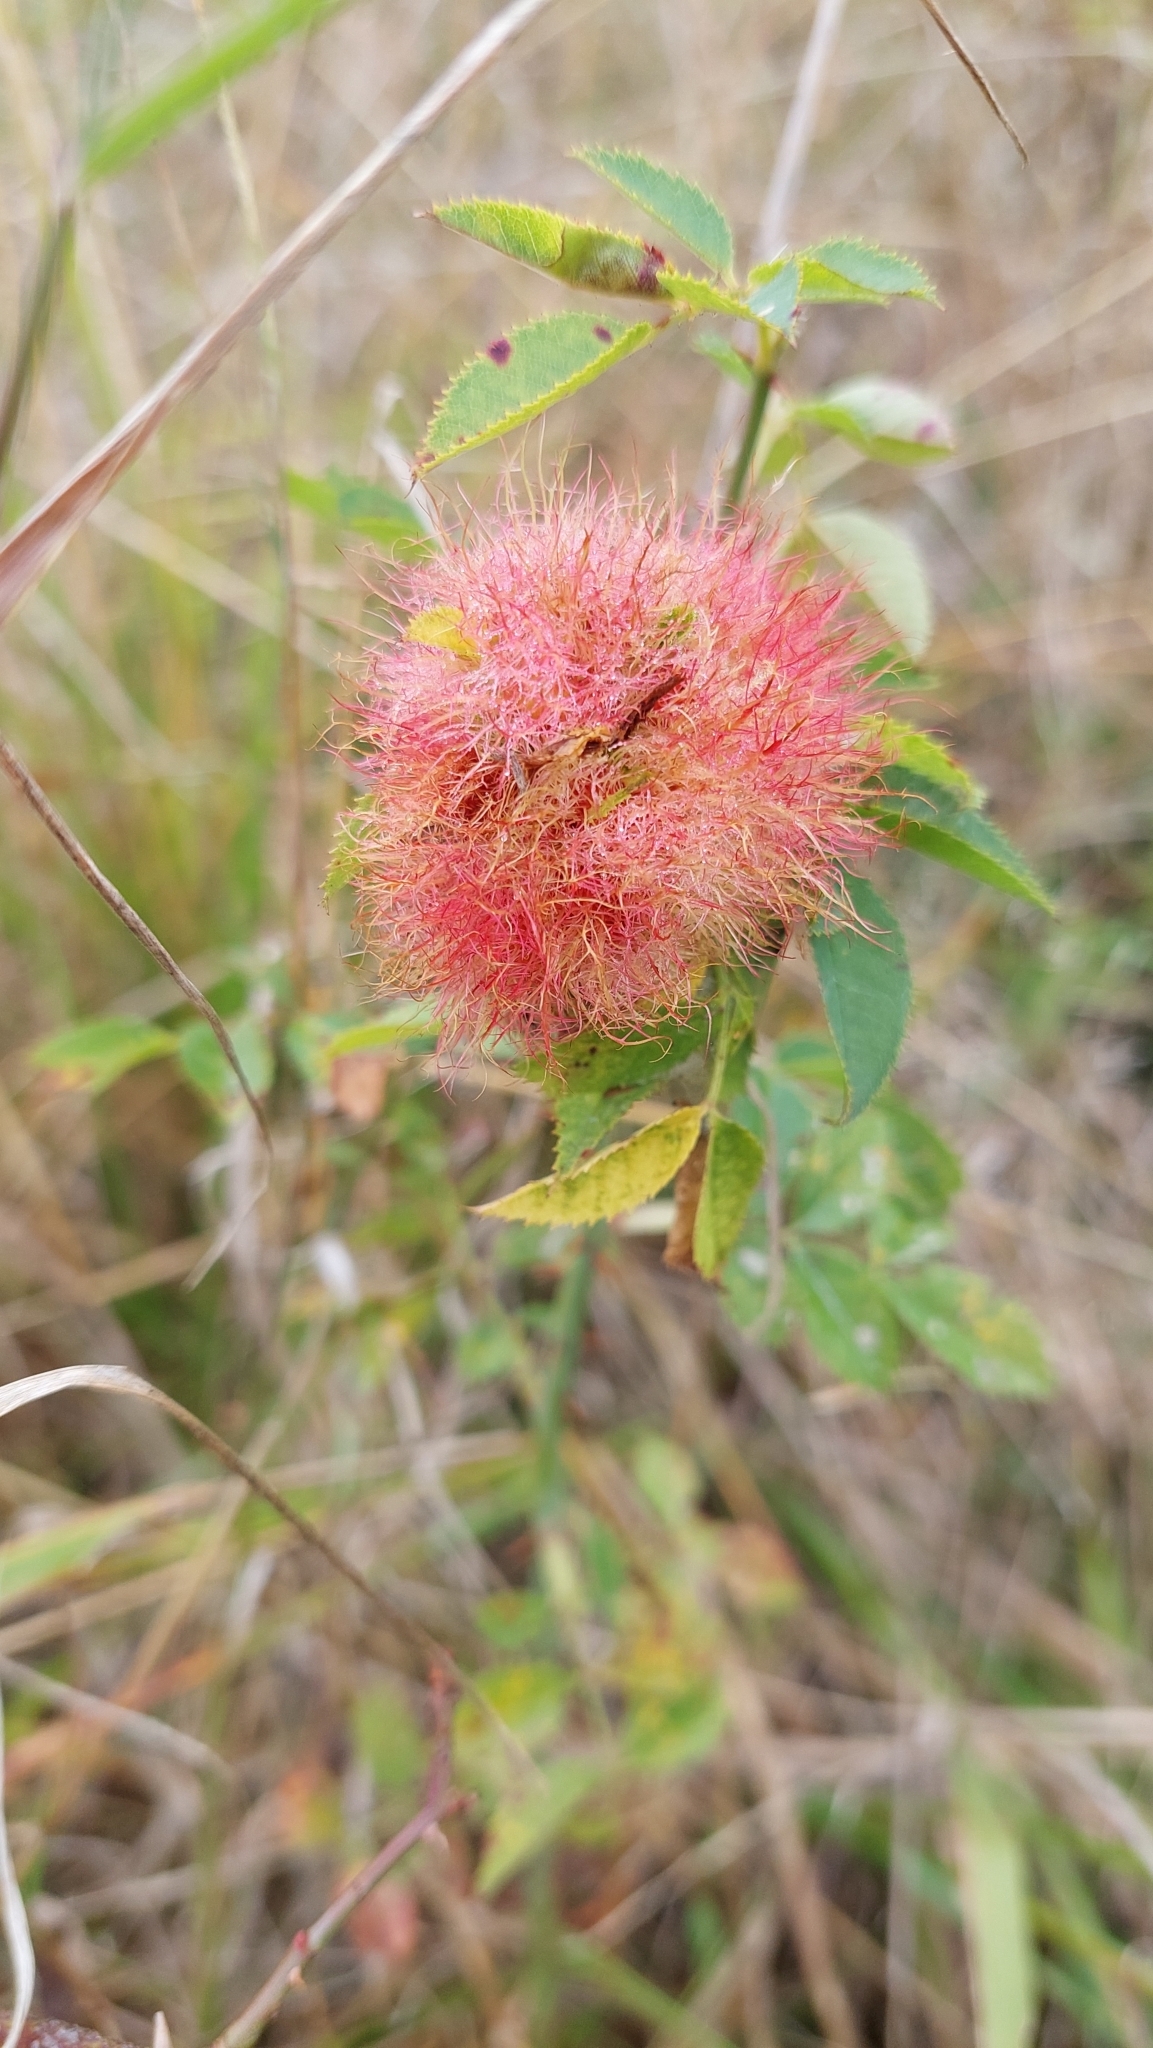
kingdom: Animalia
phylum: Arthropoda
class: Insecta
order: Hymenoptera
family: Cynipidae
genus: Diplolepis
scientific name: Diplolepis rosae
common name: Bedeguar gall
